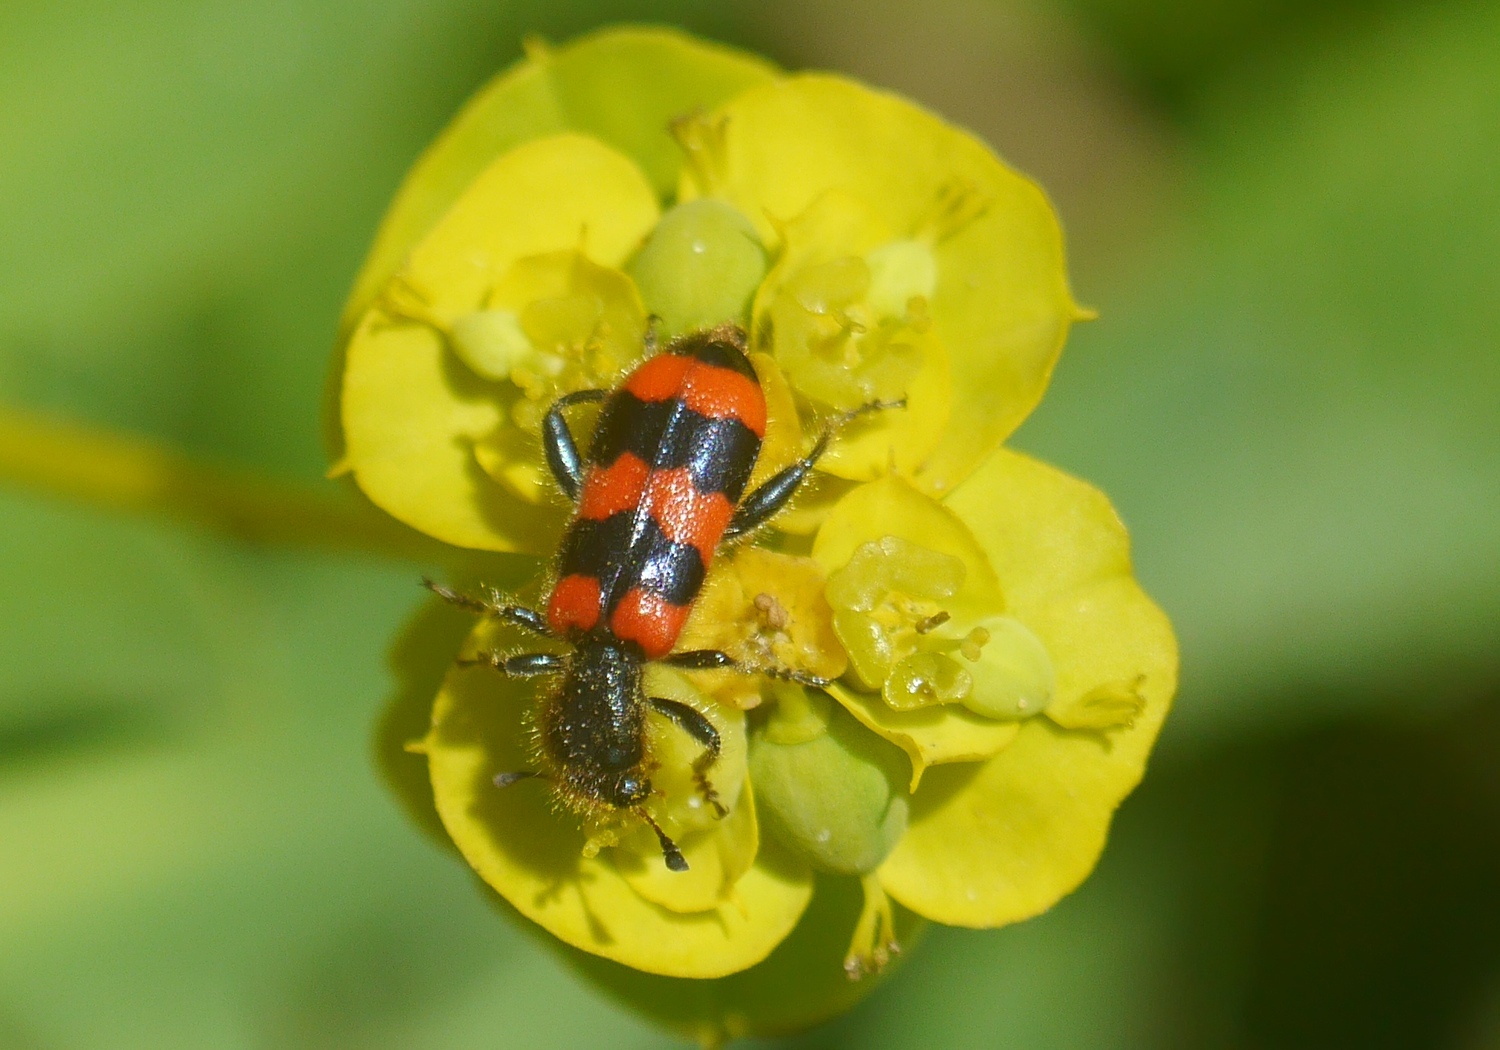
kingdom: Animalia
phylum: Arthropoda
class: Insecta
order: Coleoptera
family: Cleridae
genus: Trichodes
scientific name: Trichodes apiarius
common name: Bee-eating beetle
